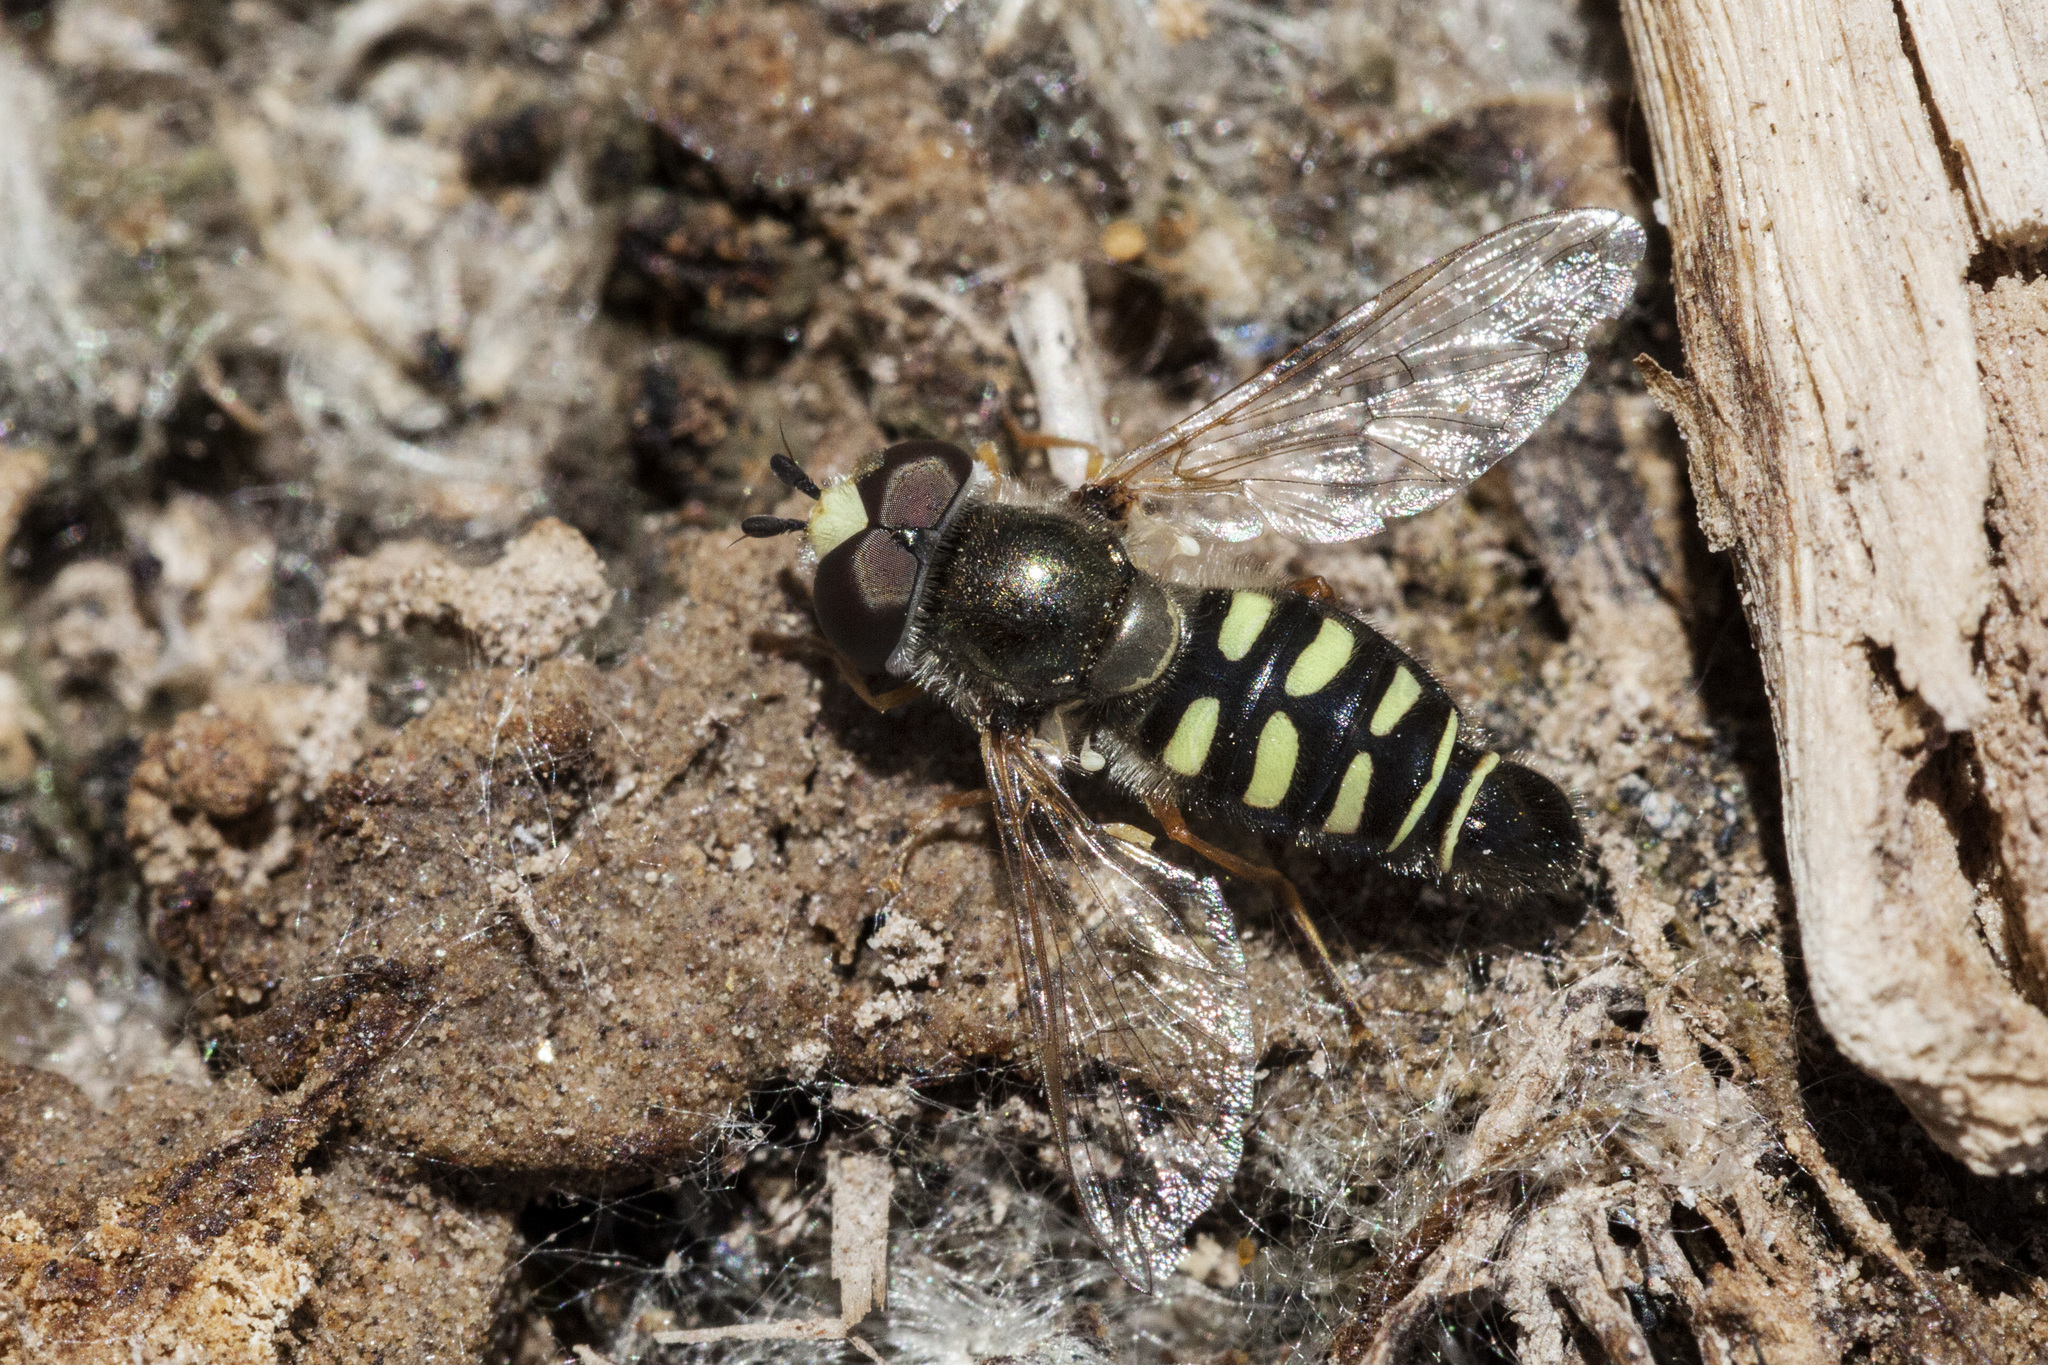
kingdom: Animalia
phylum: Arthropoda
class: Insecta
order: Diptera
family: Syrphidae
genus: Eupeodes
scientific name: Eupeodes volucris
